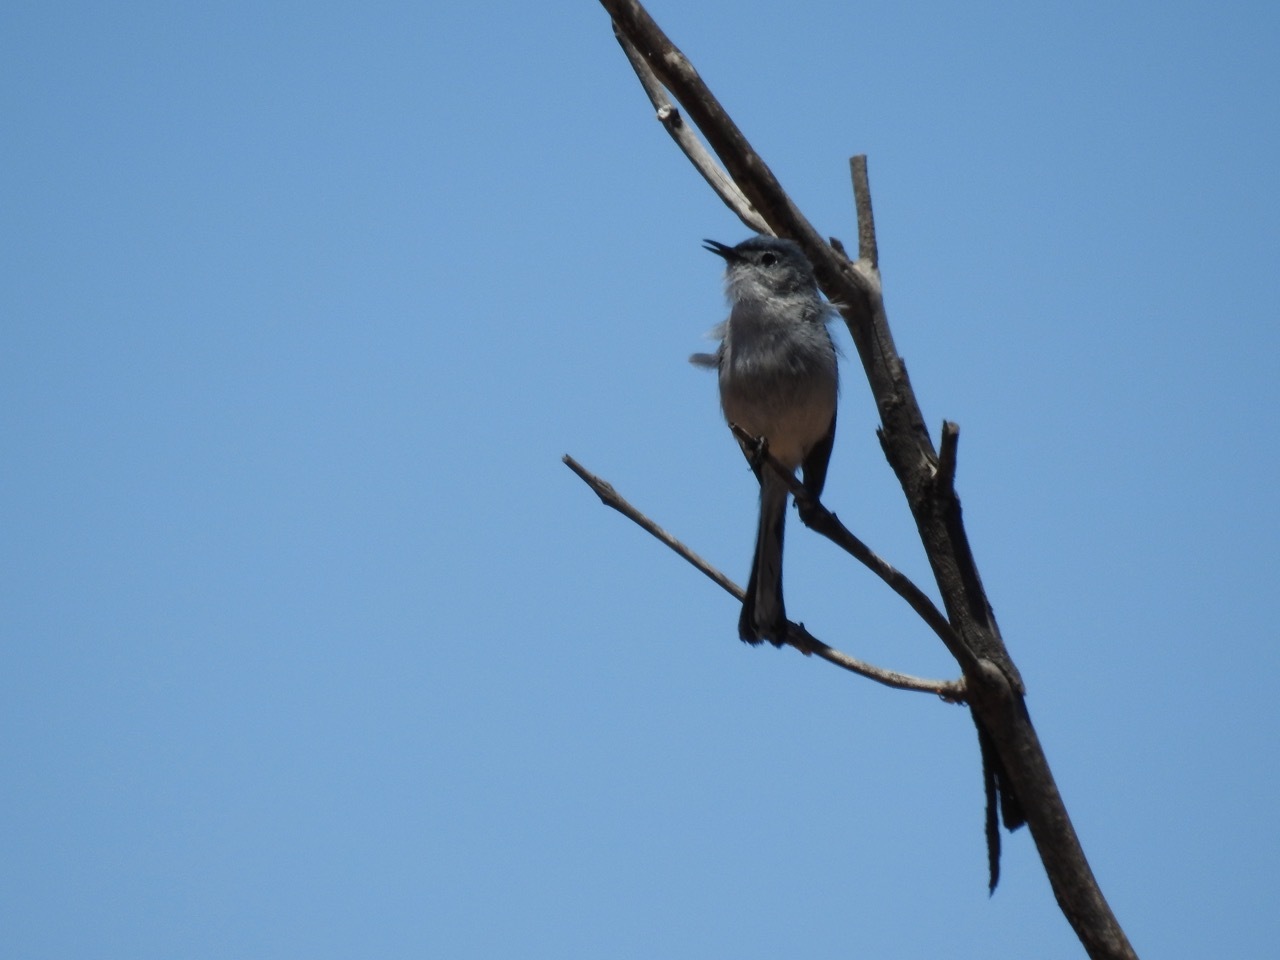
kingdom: Animalia
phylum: Chordata
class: Aves
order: Passeriformes
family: Polioptilidae
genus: Polioptila
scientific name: Polioptila caerulea
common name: Blue-gray gnatcatcher
